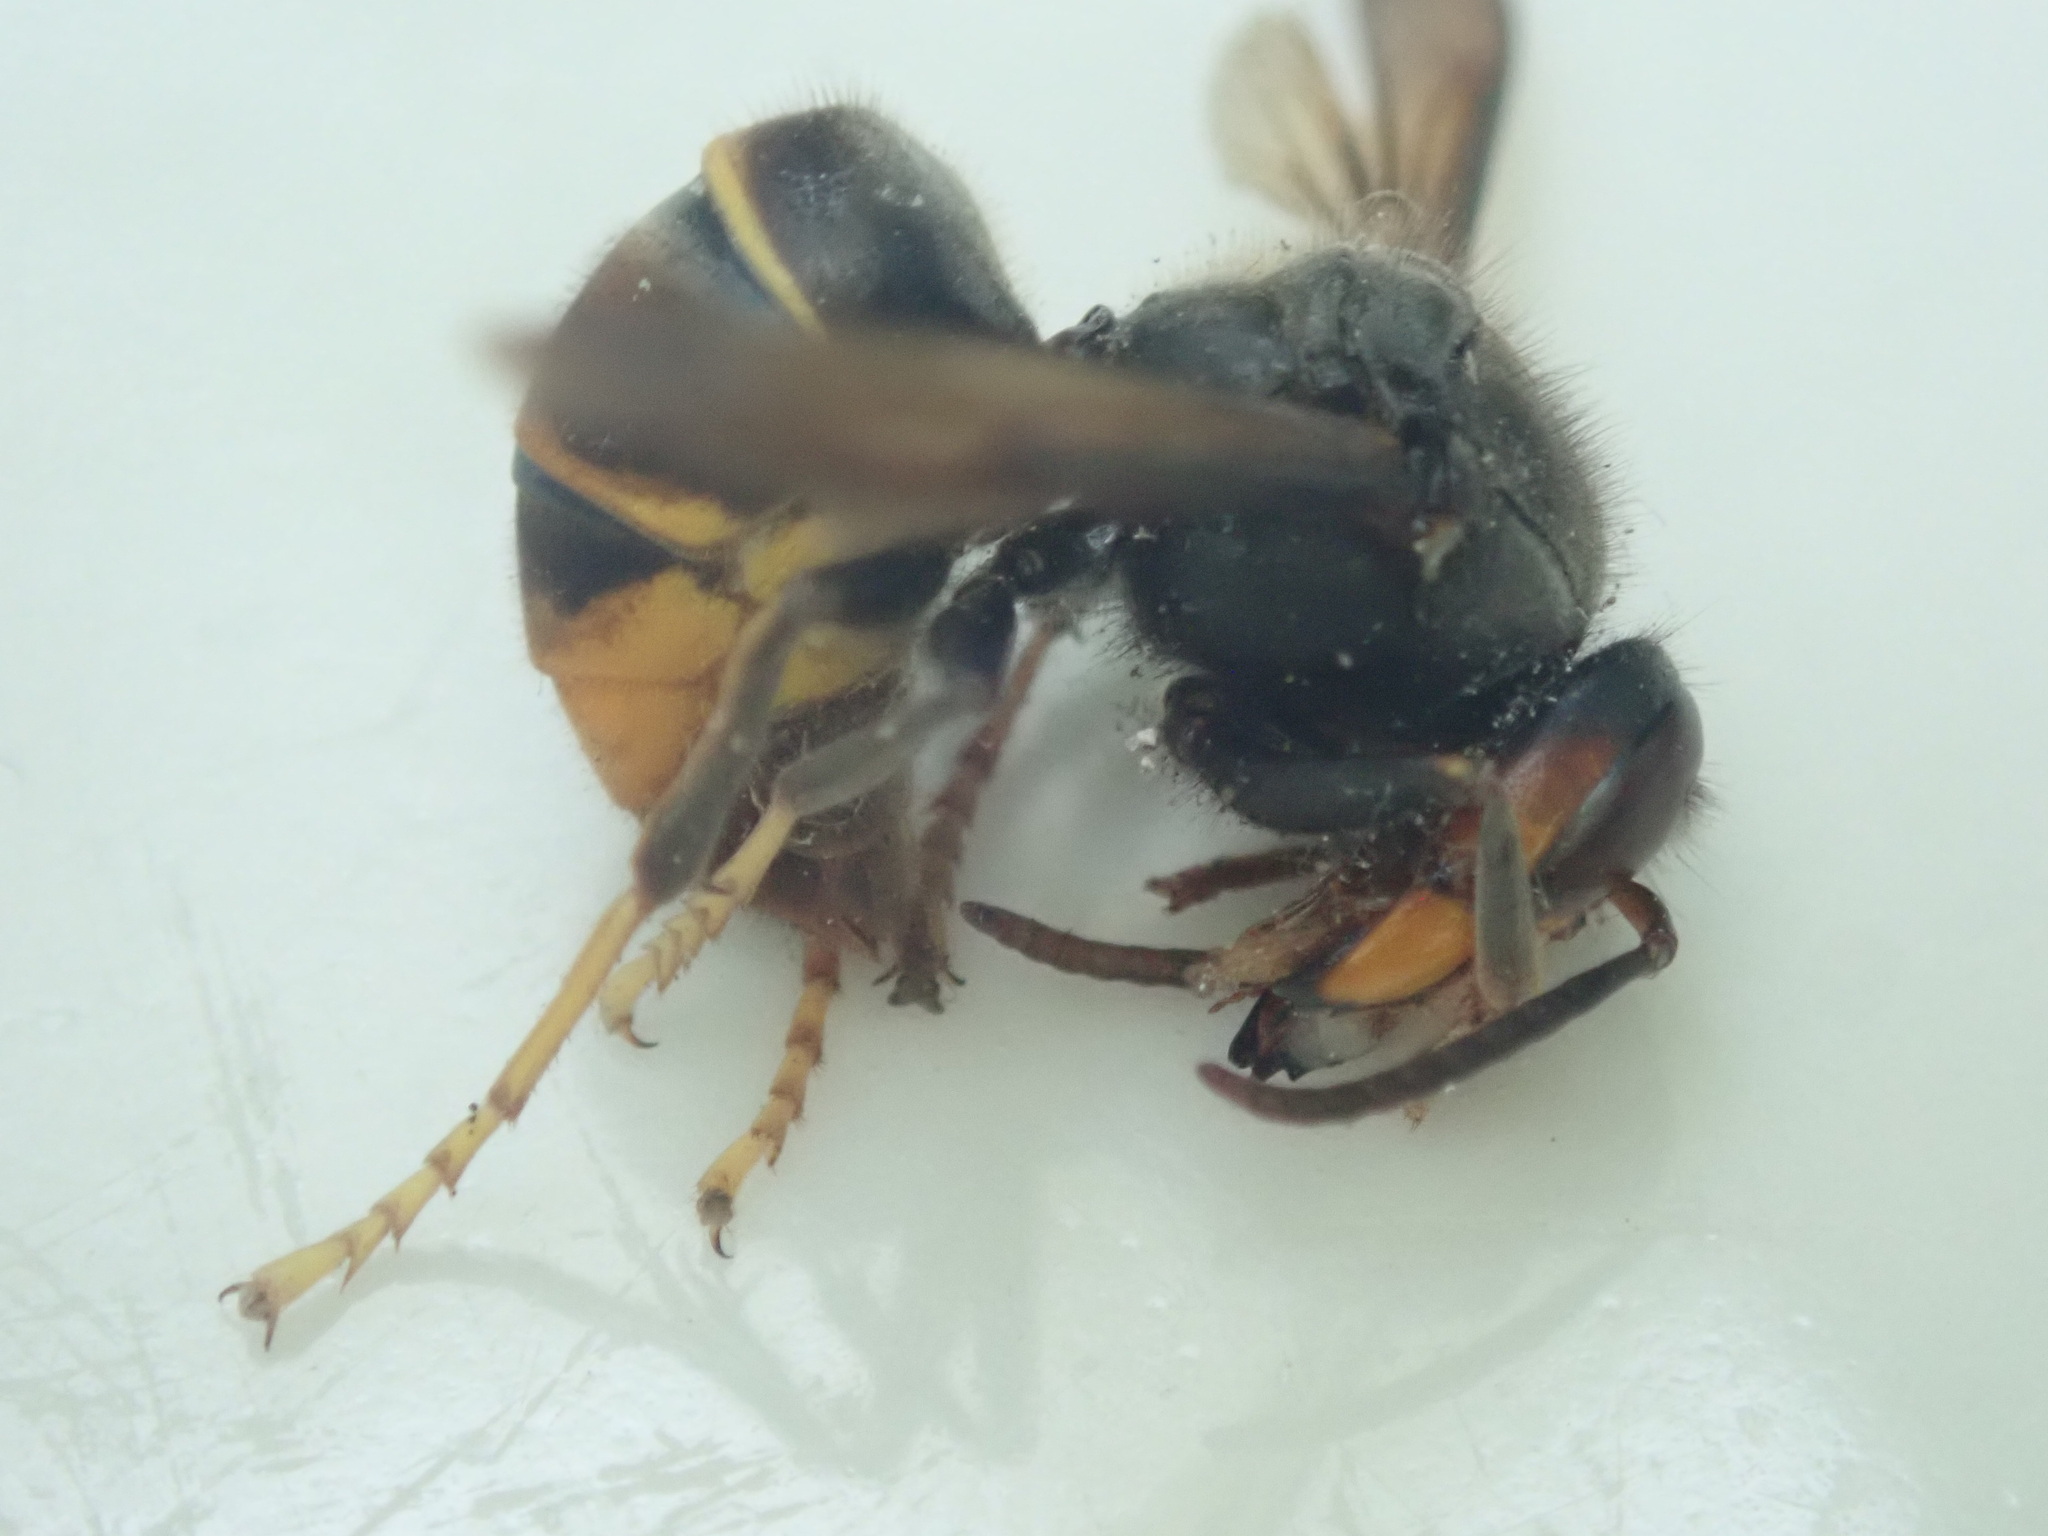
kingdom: Animalia
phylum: Arthropoda
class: Insecta
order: Hymenoptera
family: Vespidae
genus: Vespa
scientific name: Vespa velutina
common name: Asian hornet
